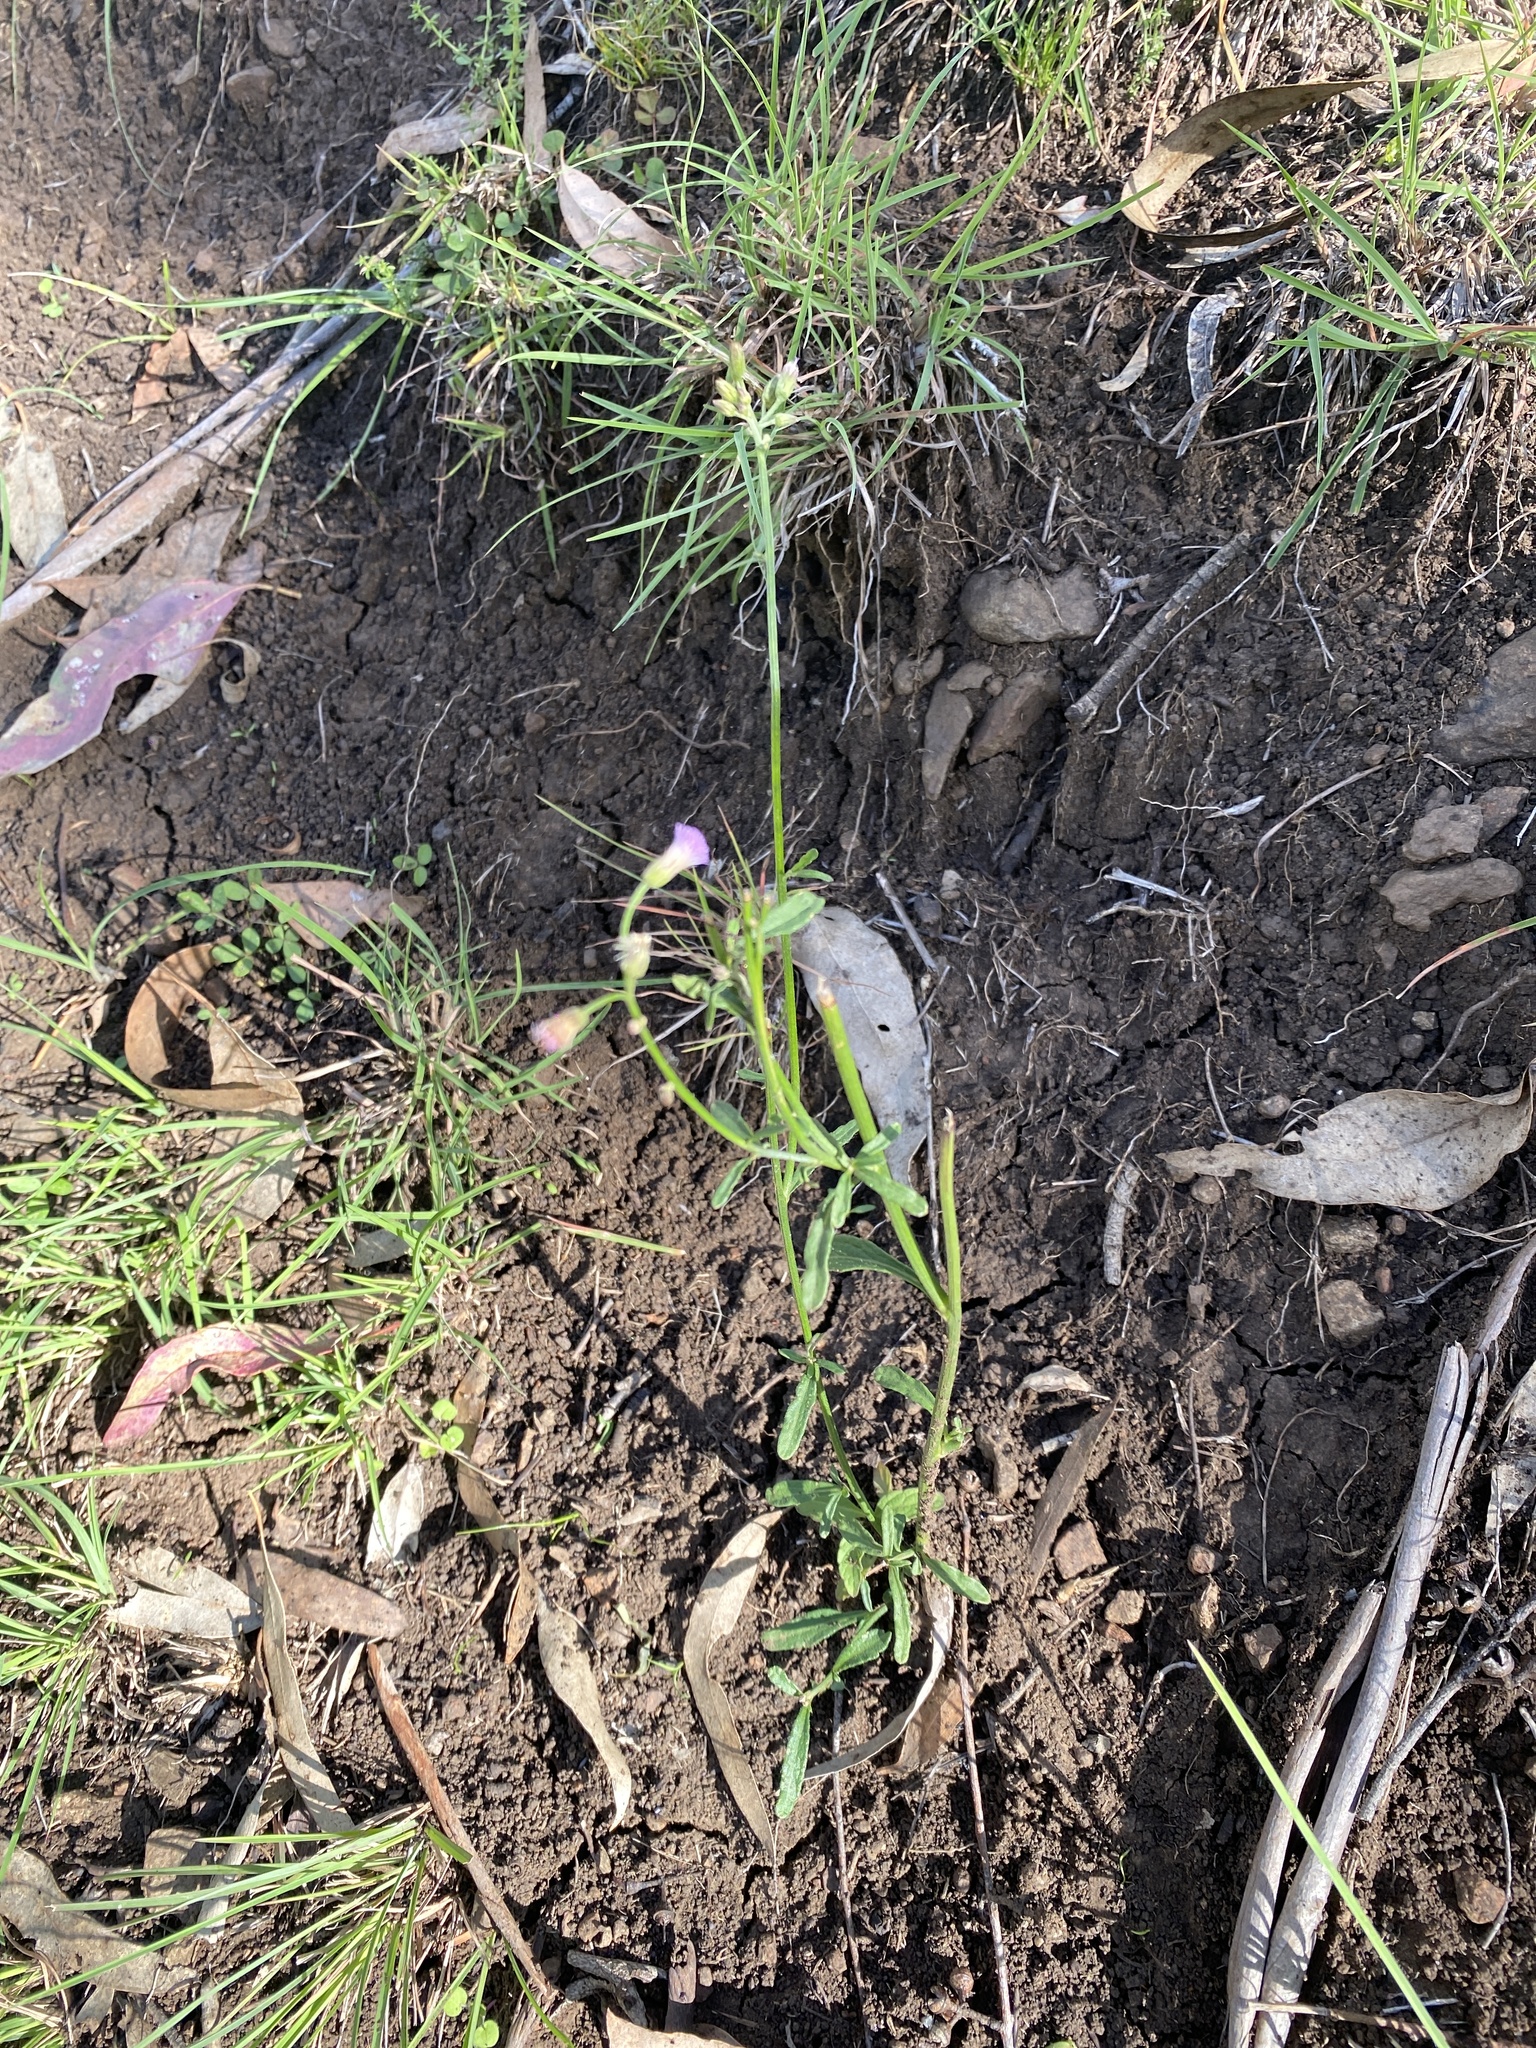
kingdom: Plantae
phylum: Tracheophyta
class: Magnoliopsida
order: Asterales
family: Asteraceae
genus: Cyanthillium
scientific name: Cyanthillium cinereum
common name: Little ironweed
